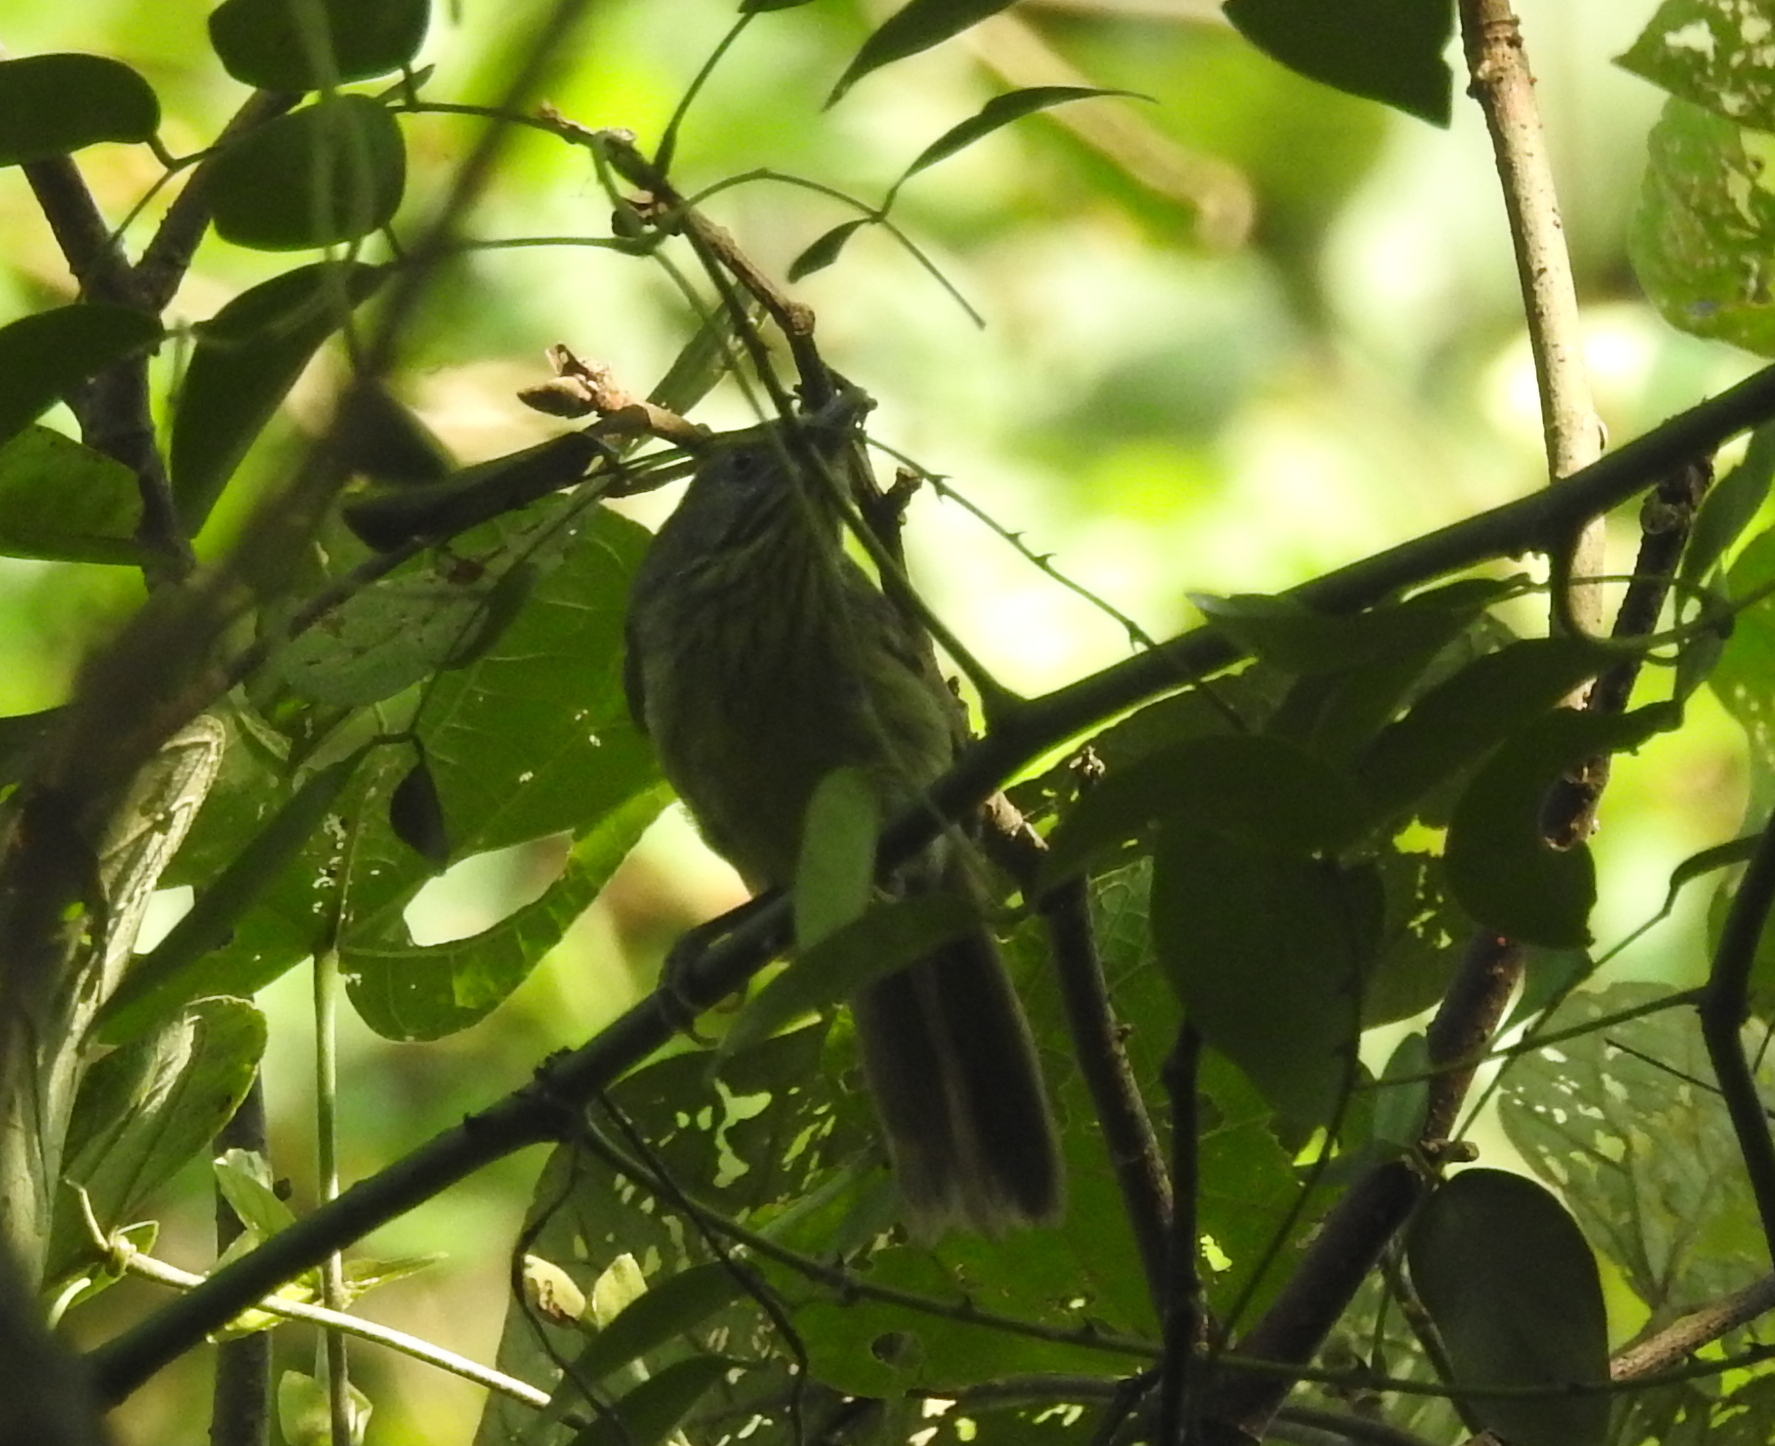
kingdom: Animalia
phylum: Chordata
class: Aves
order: Passeriformes
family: Timaliidae
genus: Macronus
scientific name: Macronus gularis
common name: Striped tit-babbler
